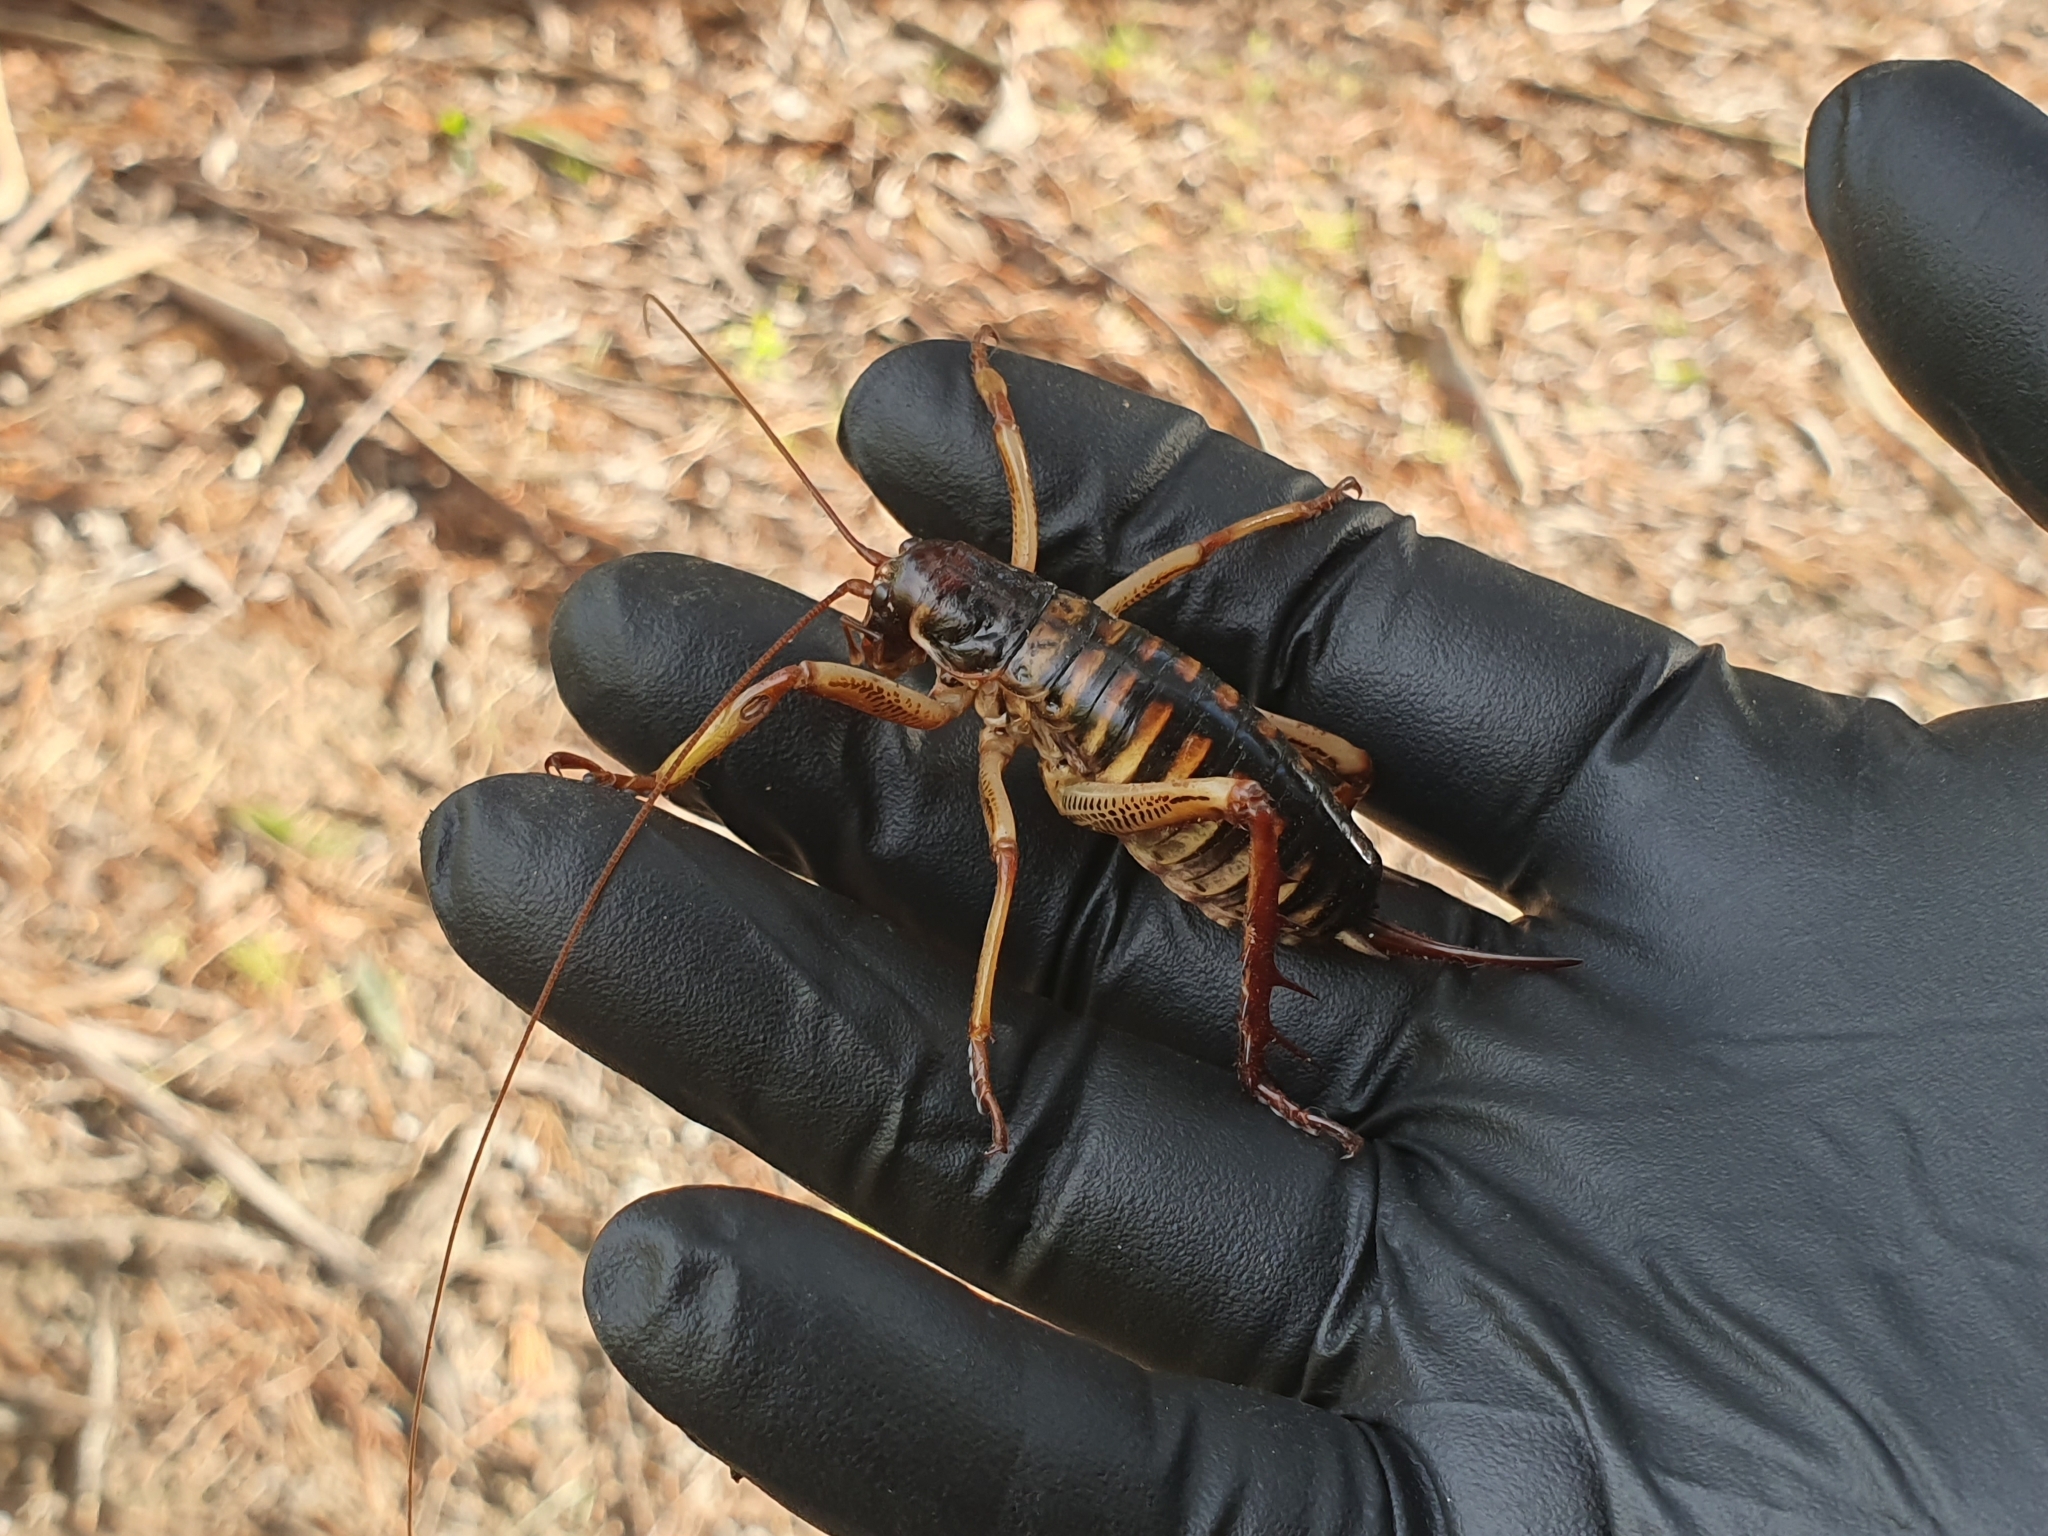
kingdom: Animalia
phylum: Arthropoda
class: Insecta
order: Orthoptera
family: Anostostomatidae
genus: Hemideina
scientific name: Hemideina crassidens
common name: Wellington tree weta
